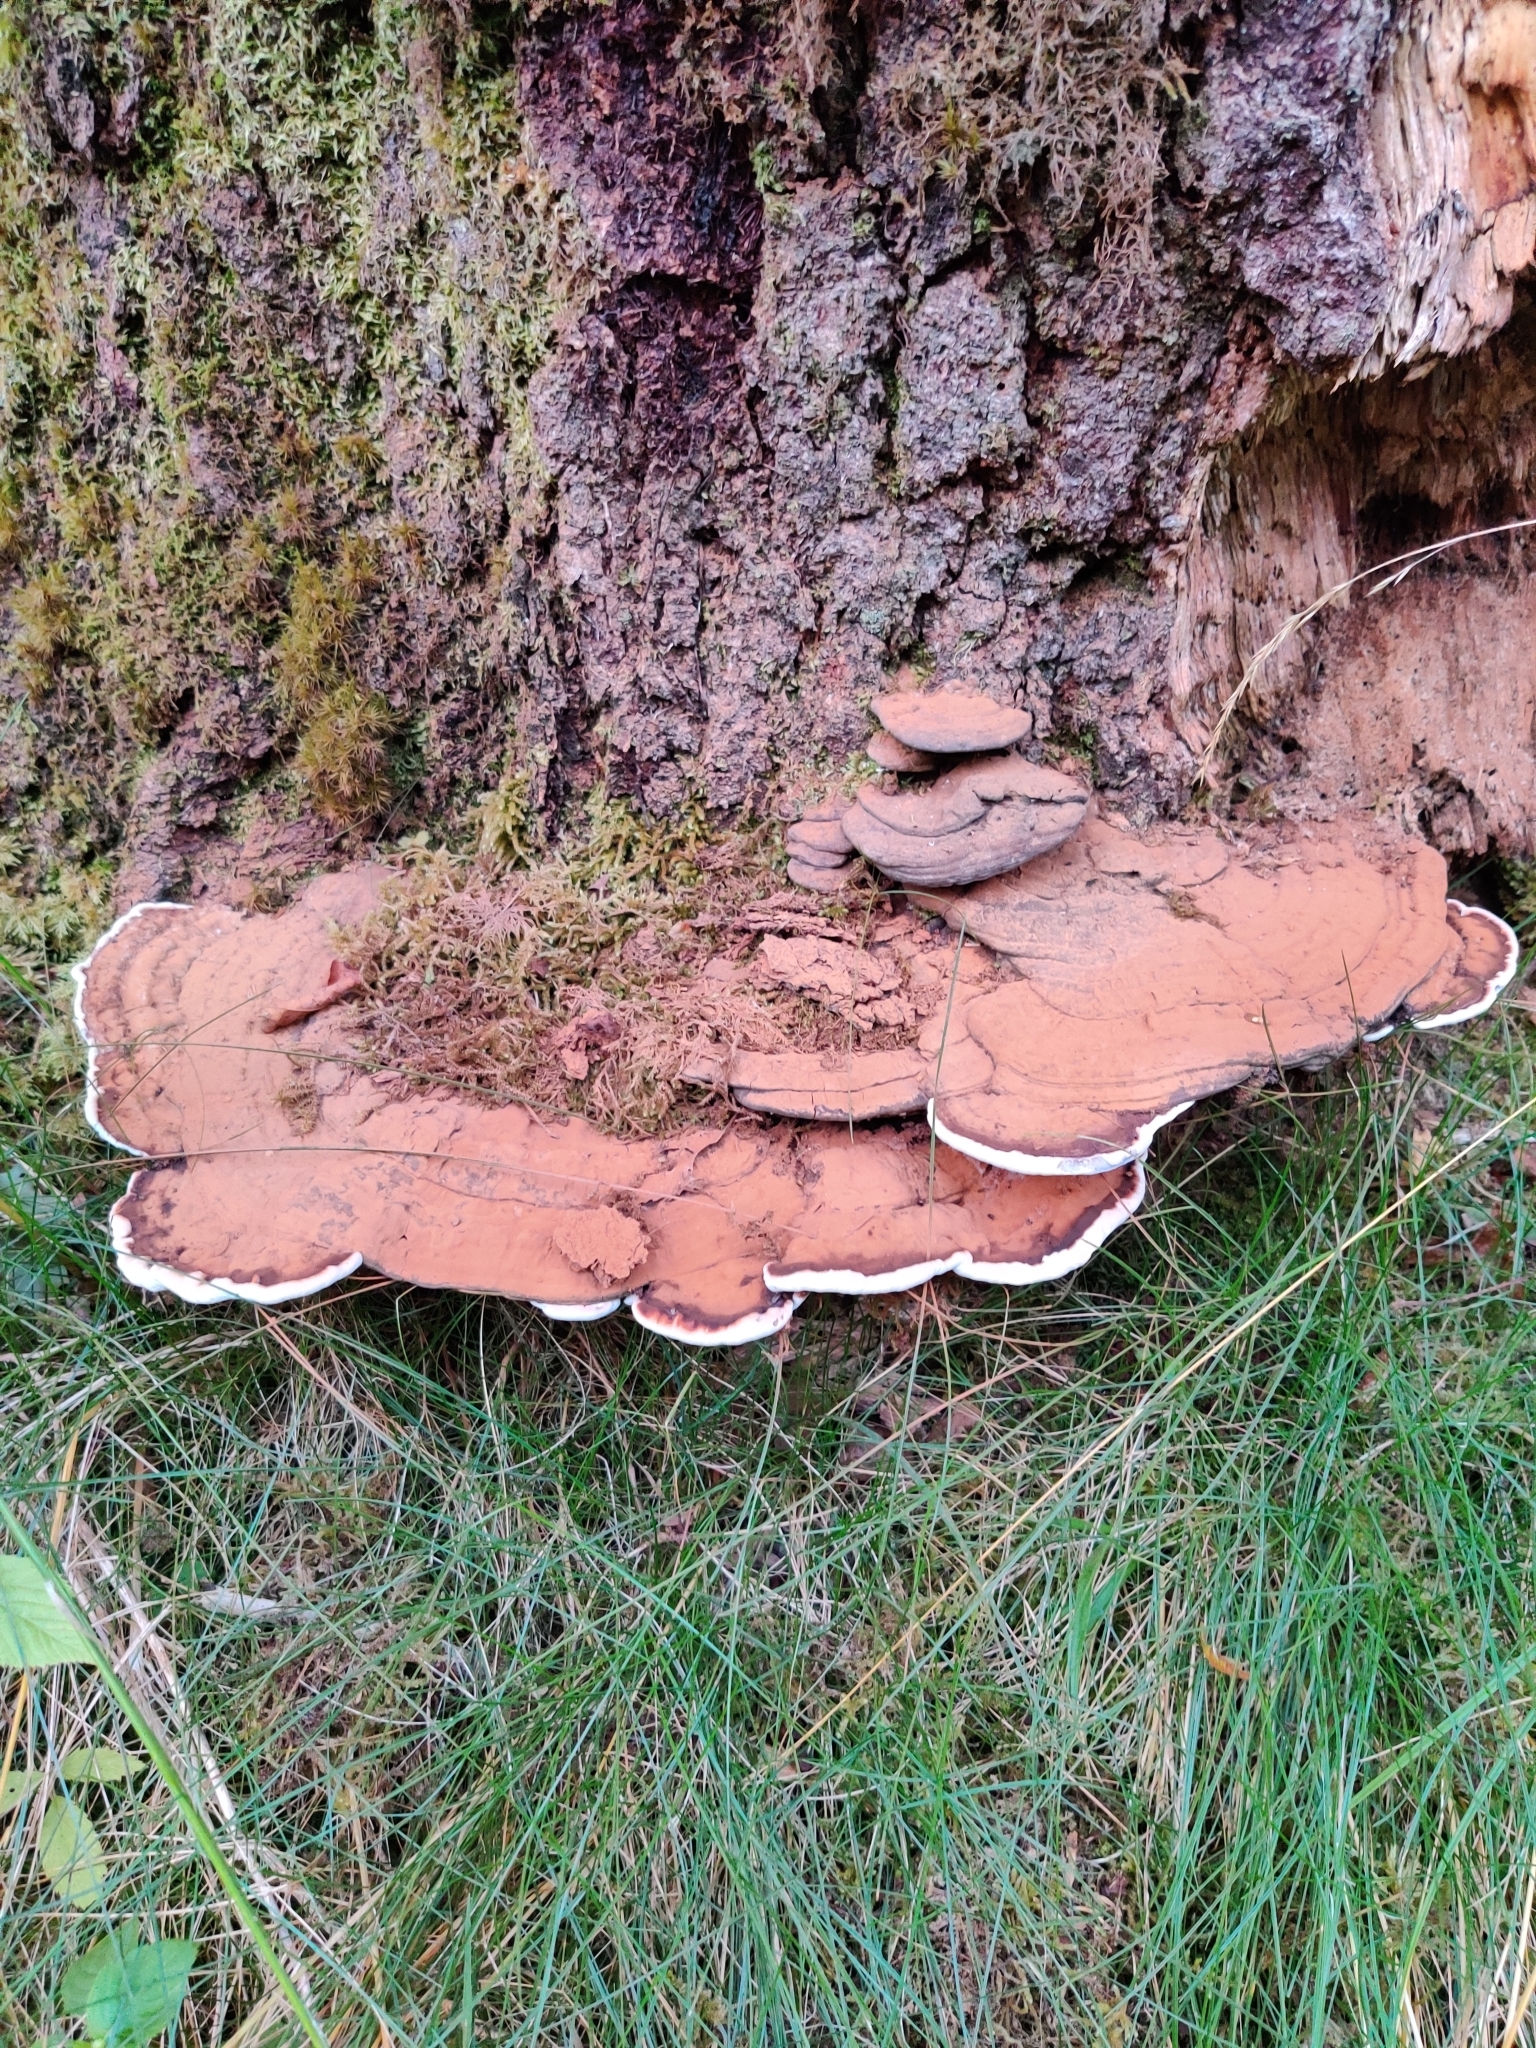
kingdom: Fungi
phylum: Basidiomycota
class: Agaricomycetes
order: Polyporales
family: Polyporaceae
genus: Ganoderma
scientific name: Ganoderma applanatum
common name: Artist's bracket
